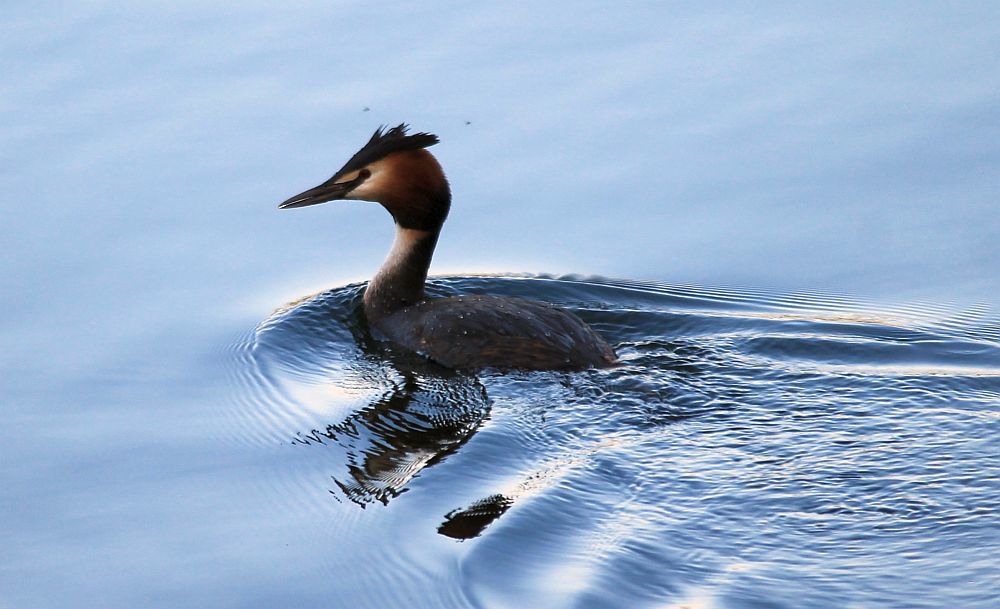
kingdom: Animalia
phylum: Chordata
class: Aves
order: Podicipediformes
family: Podicipedidae
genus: Podiceps
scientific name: Podiceps cristatus
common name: Great crested grebe
